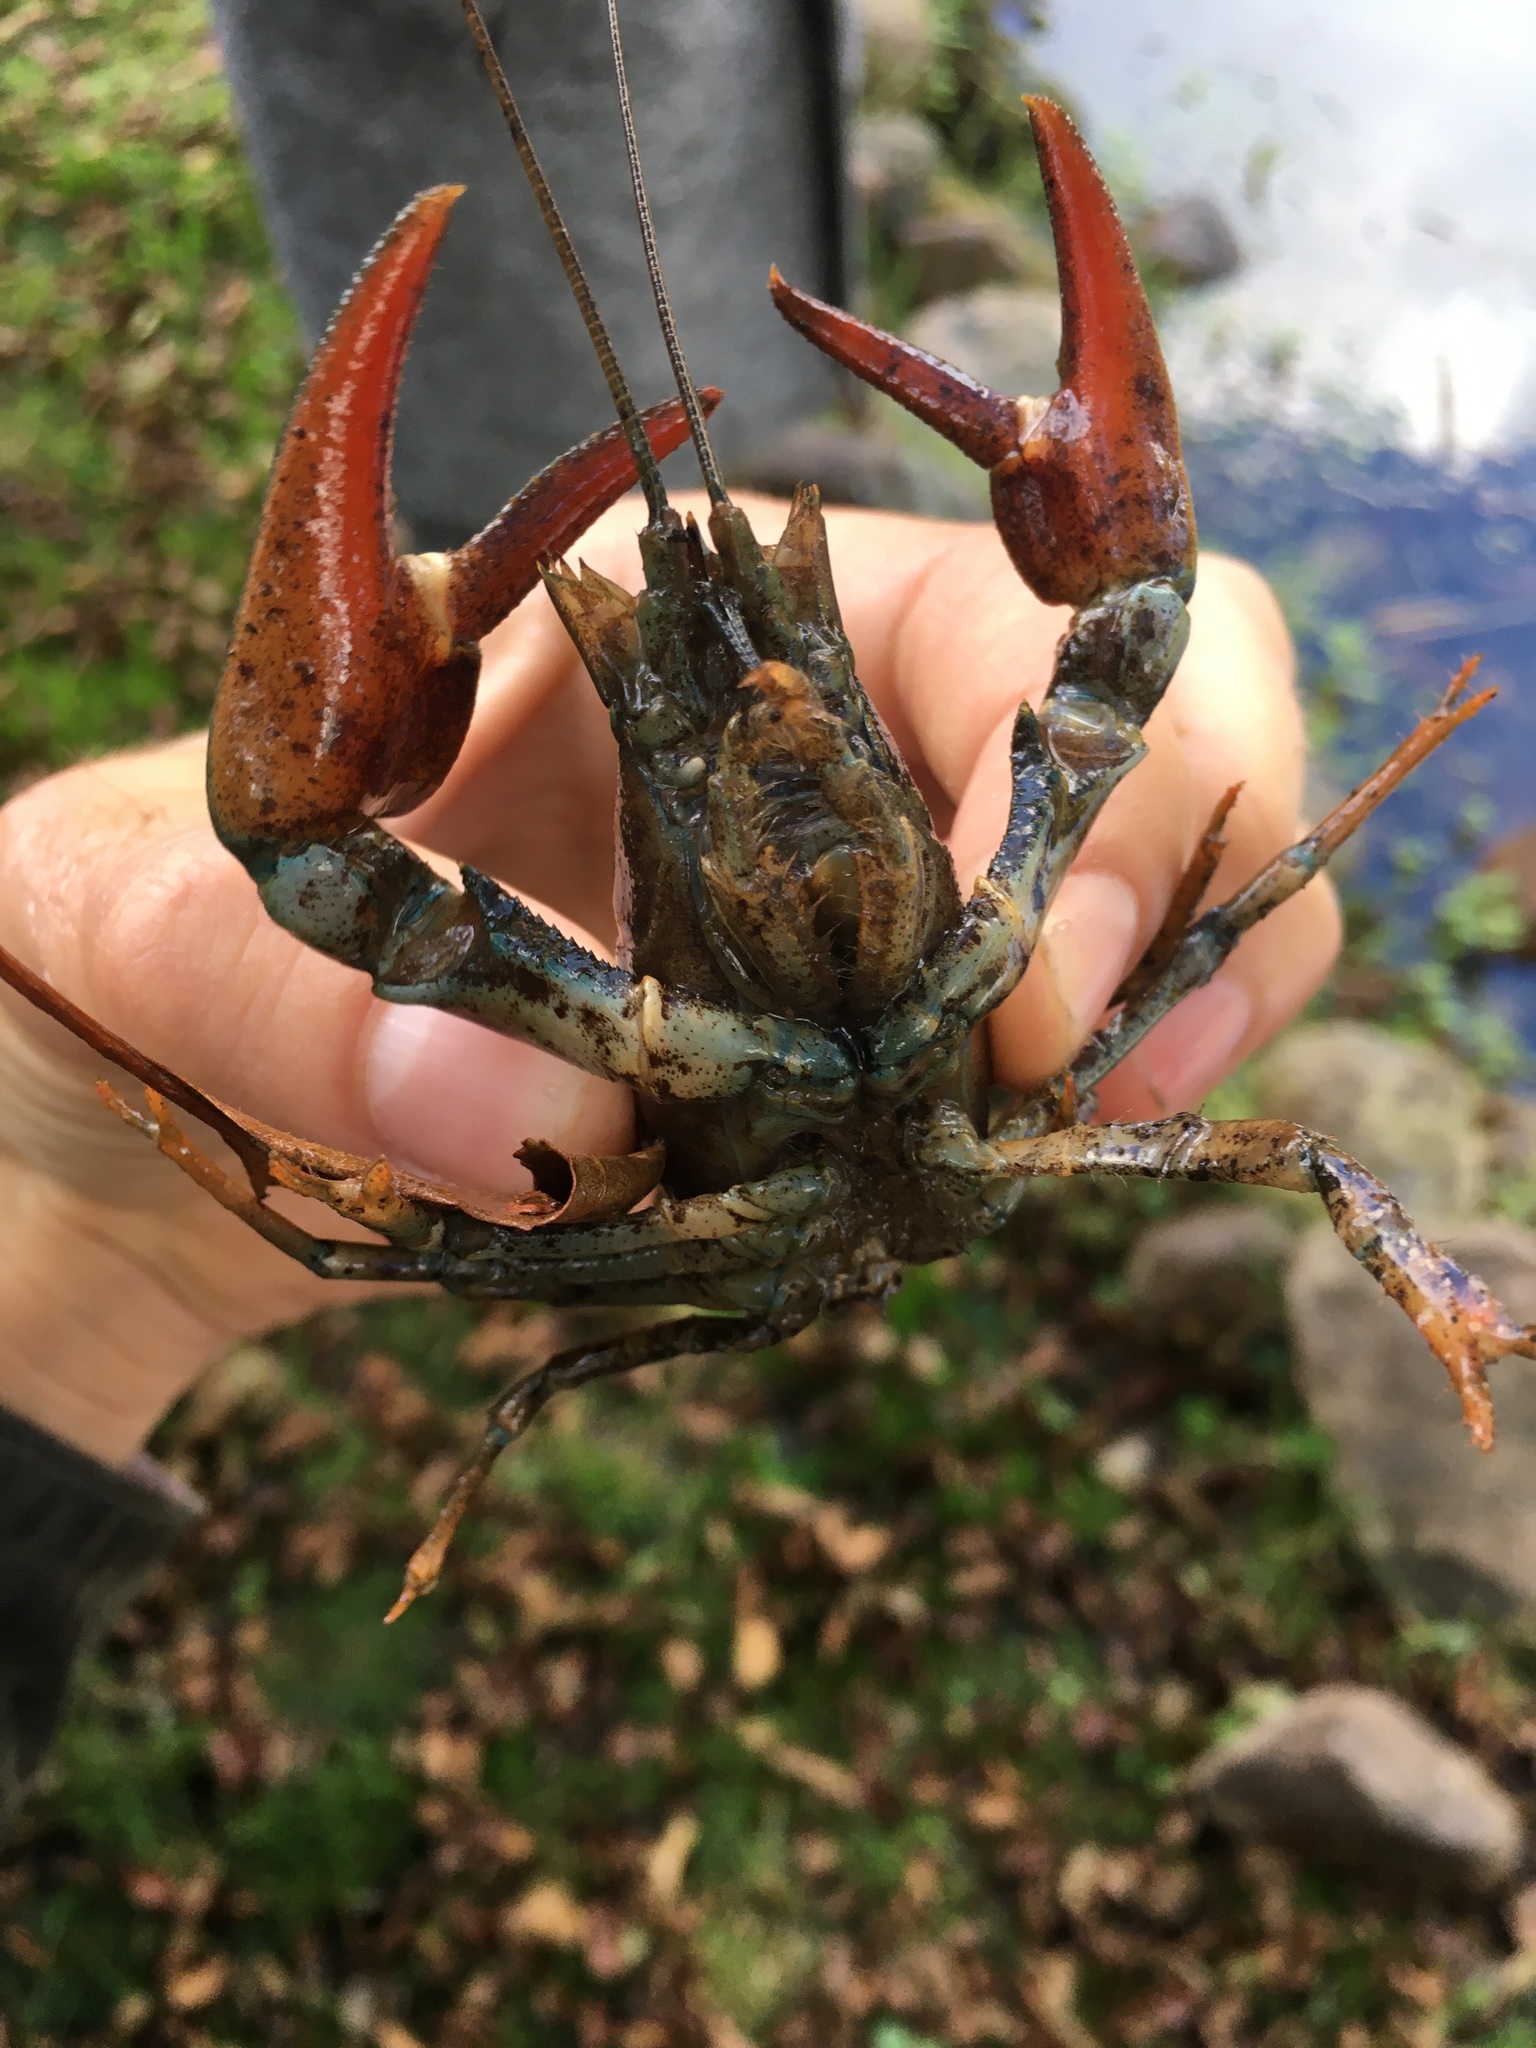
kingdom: Animalia
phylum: Arthropoda
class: Malacostraca
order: Decapoda
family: Astacidae
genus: Pacifastacus
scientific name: Pacifastacus leniusculus
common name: Signal crayfish
